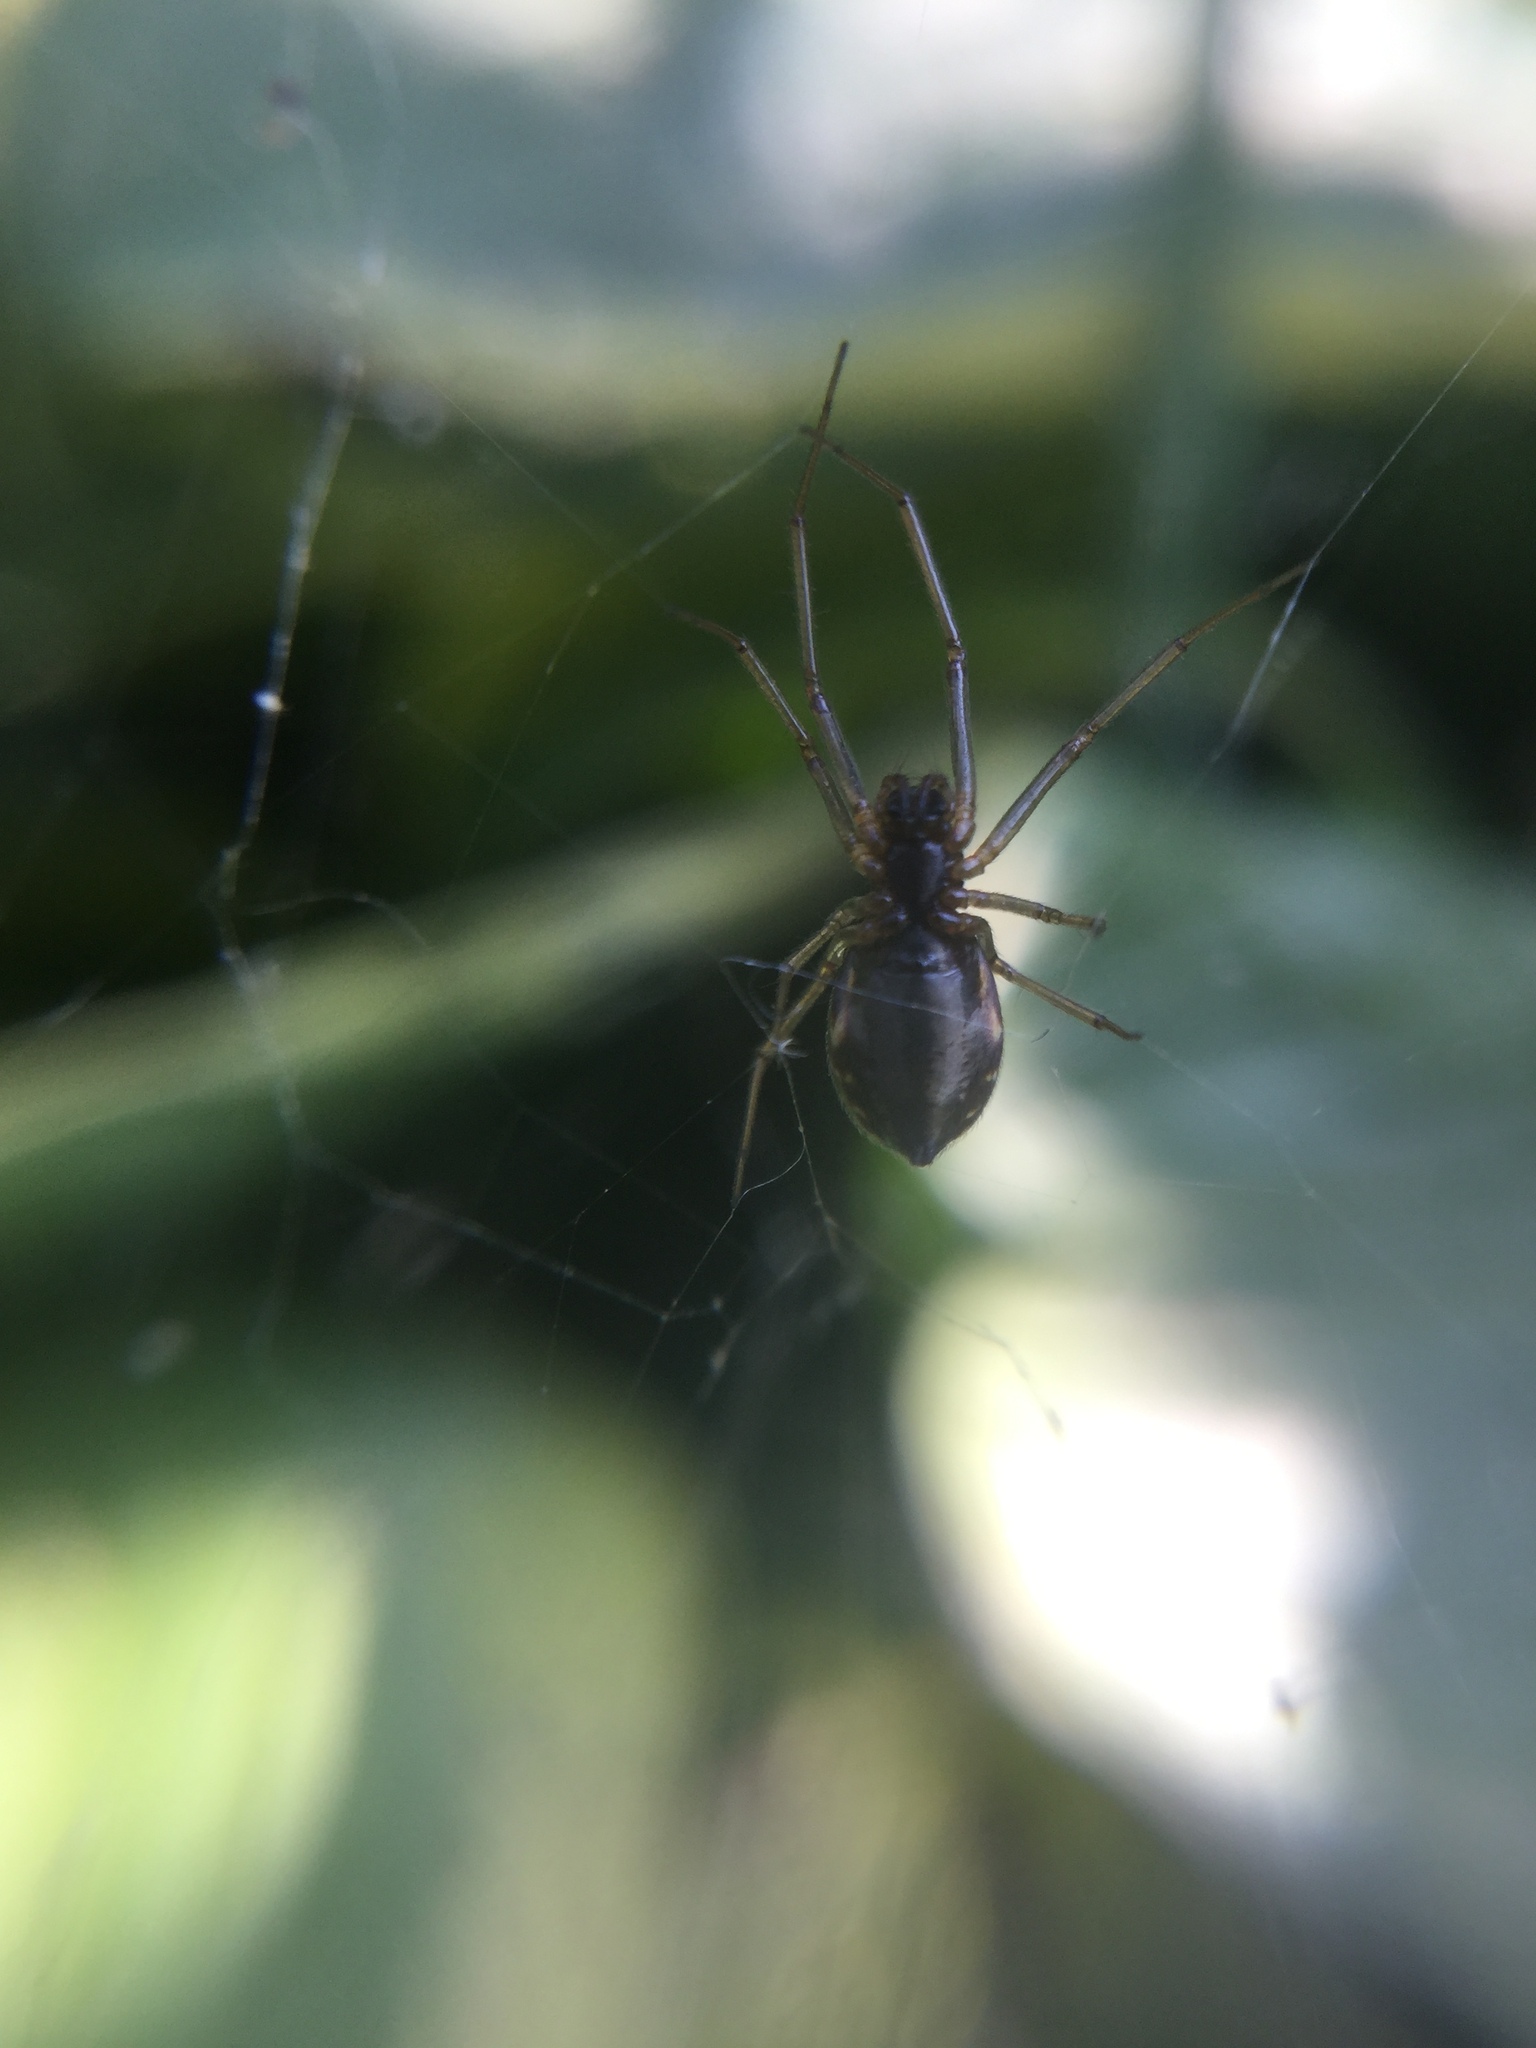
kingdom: Animalia
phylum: Arthropoda
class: Arachnida
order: Araneae
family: Linyphiidae
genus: Frontinella
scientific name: Frontinella pyramitela
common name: Bowl-and-doily spider
